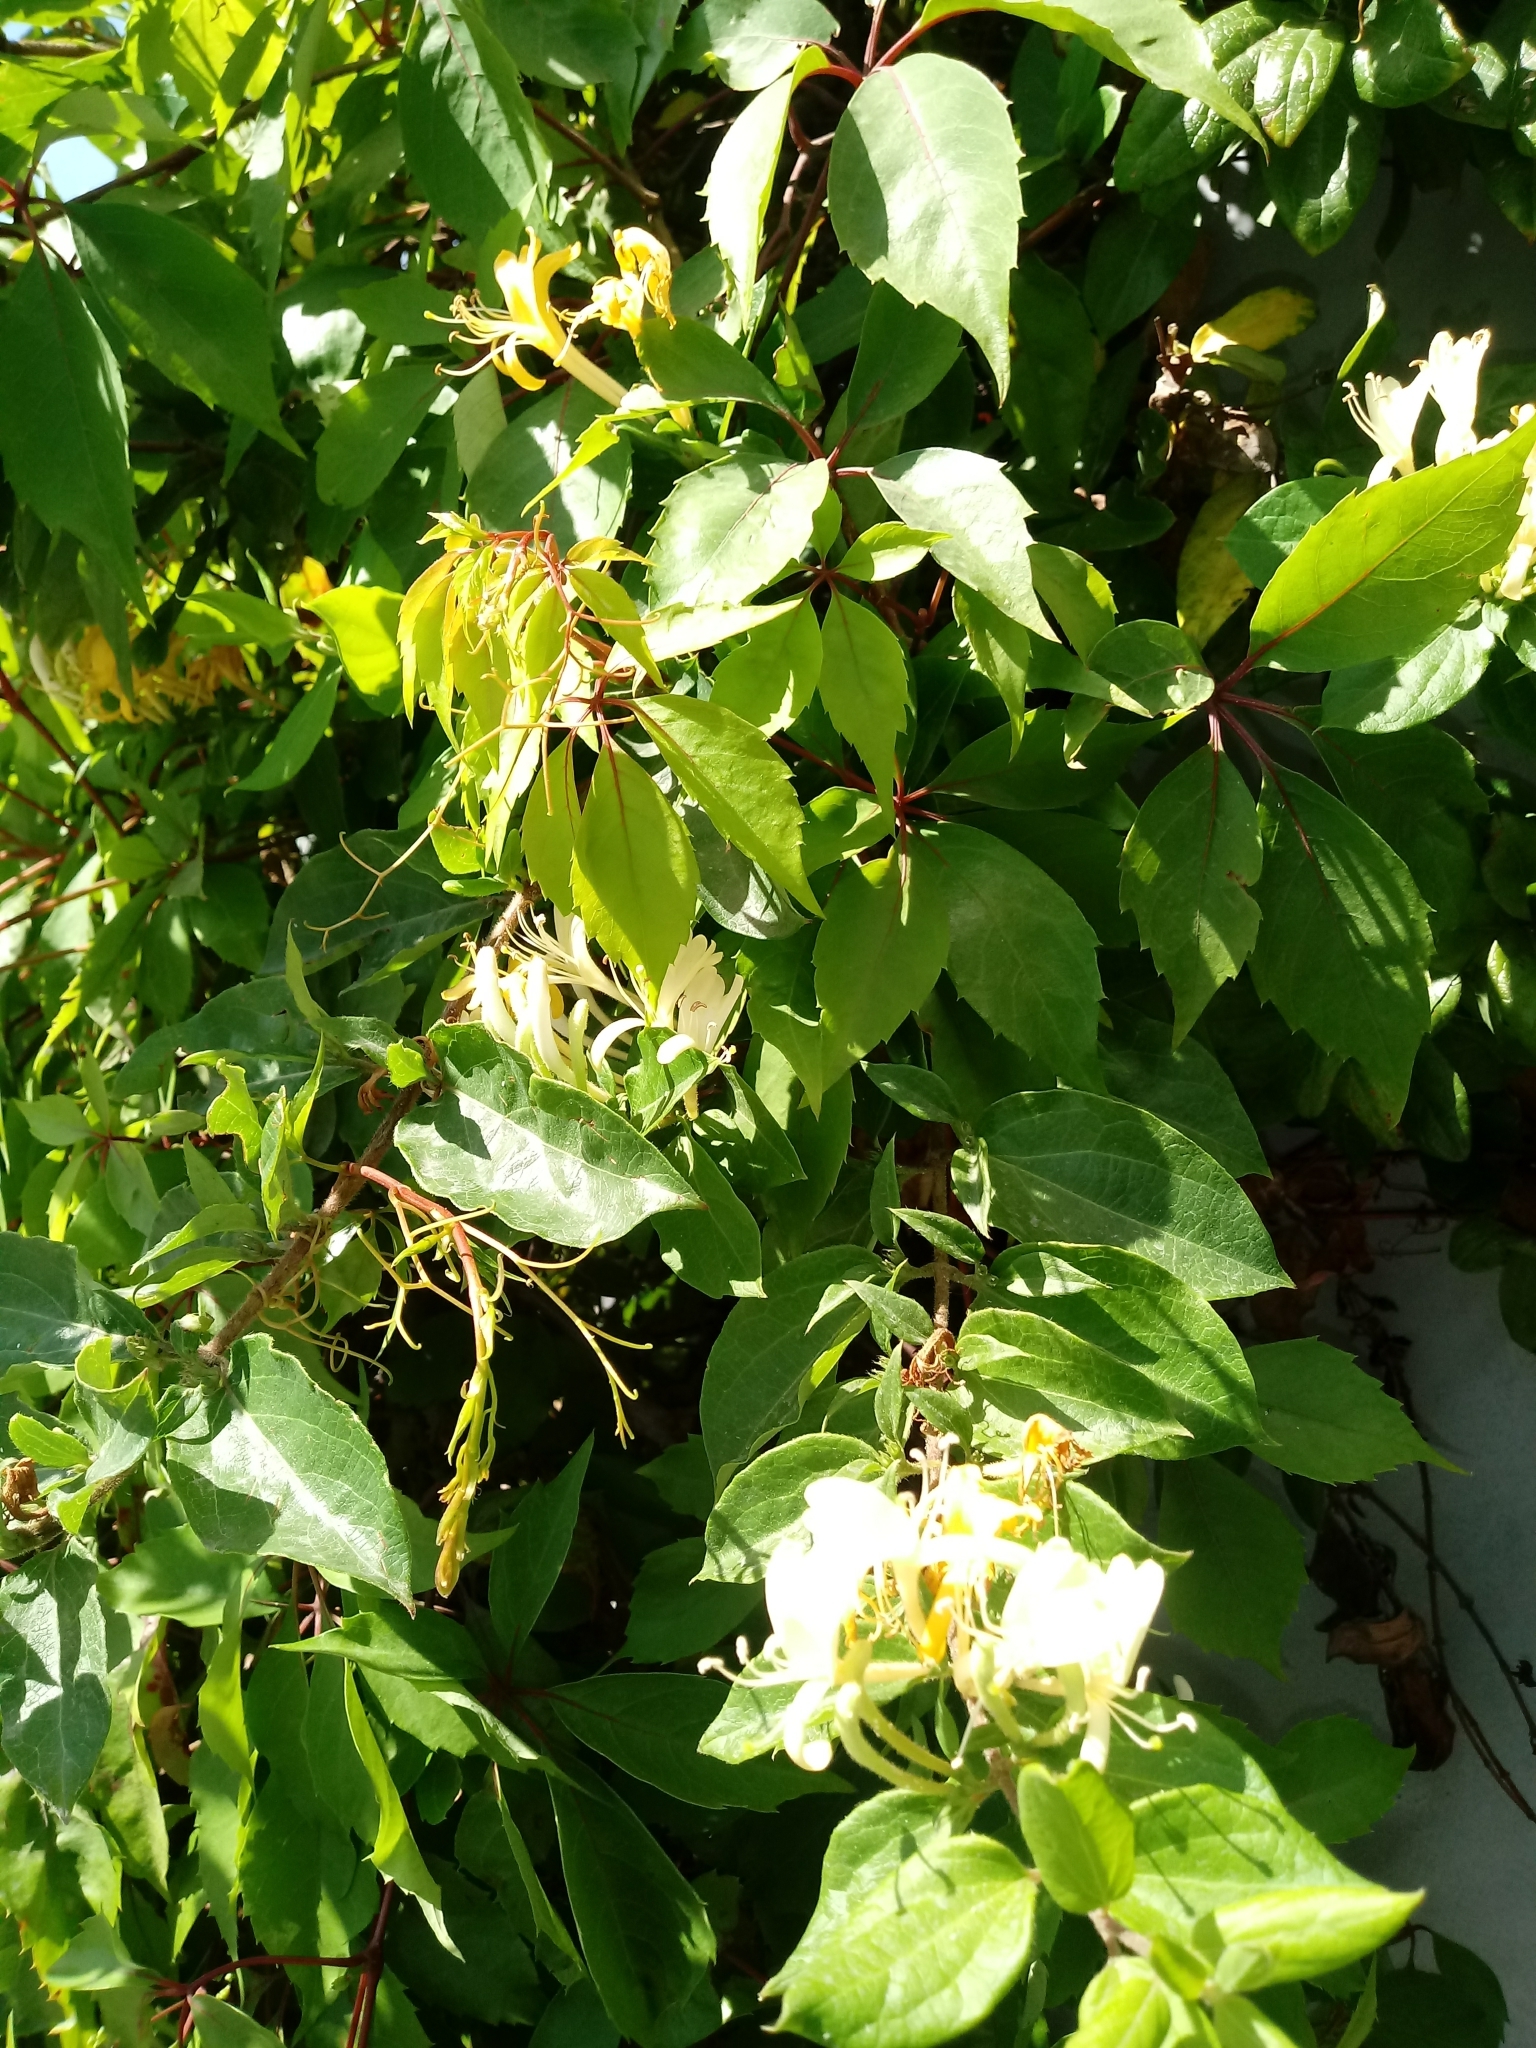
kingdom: Plantae
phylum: Tracheophyta
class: Magnoliopsida
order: Dipsacales
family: Caprifoliaceae
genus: Lonicera
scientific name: Lonicera japonica
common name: Japanese honeysuckle
